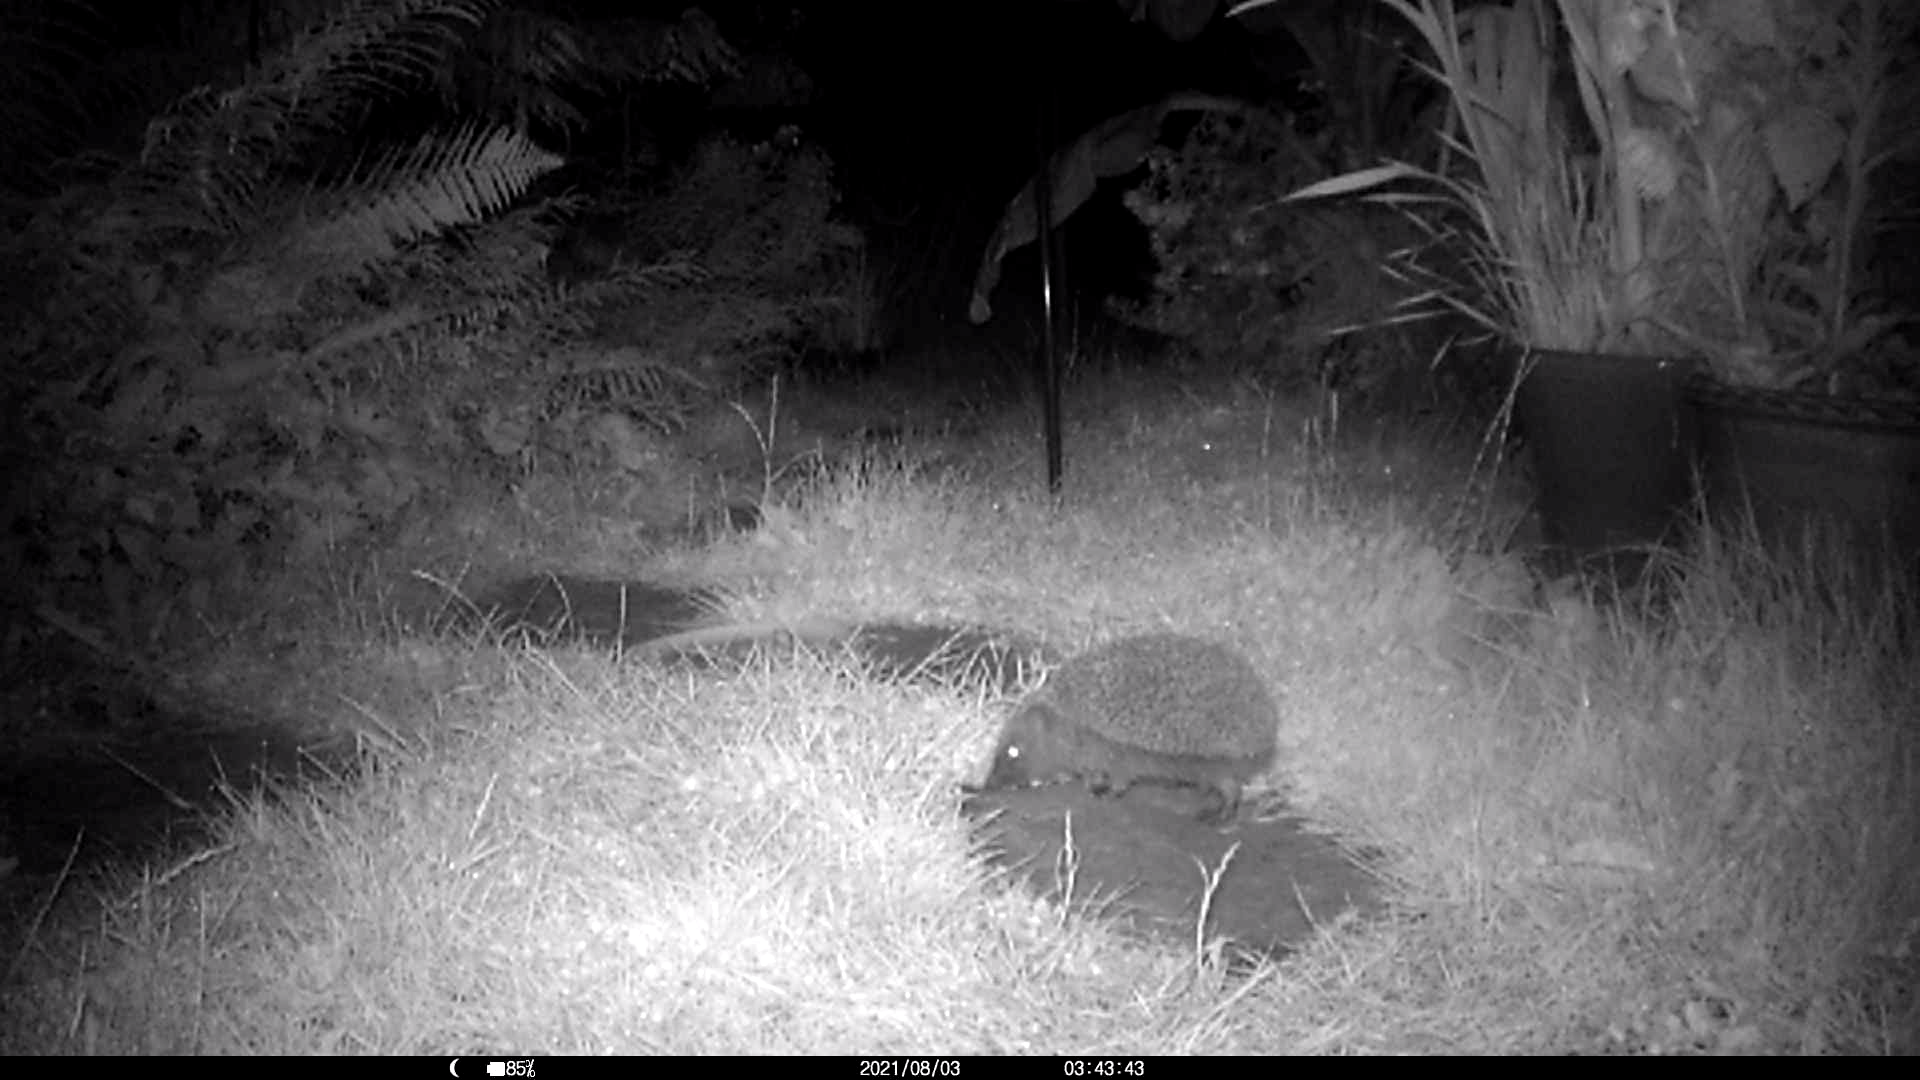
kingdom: Animalia
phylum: Chordata
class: Mammalia
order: Erinaceomorpha
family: Erinaceidae
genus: Erinaceus
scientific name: Erinaceus europaeus
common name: West european hedgehog
